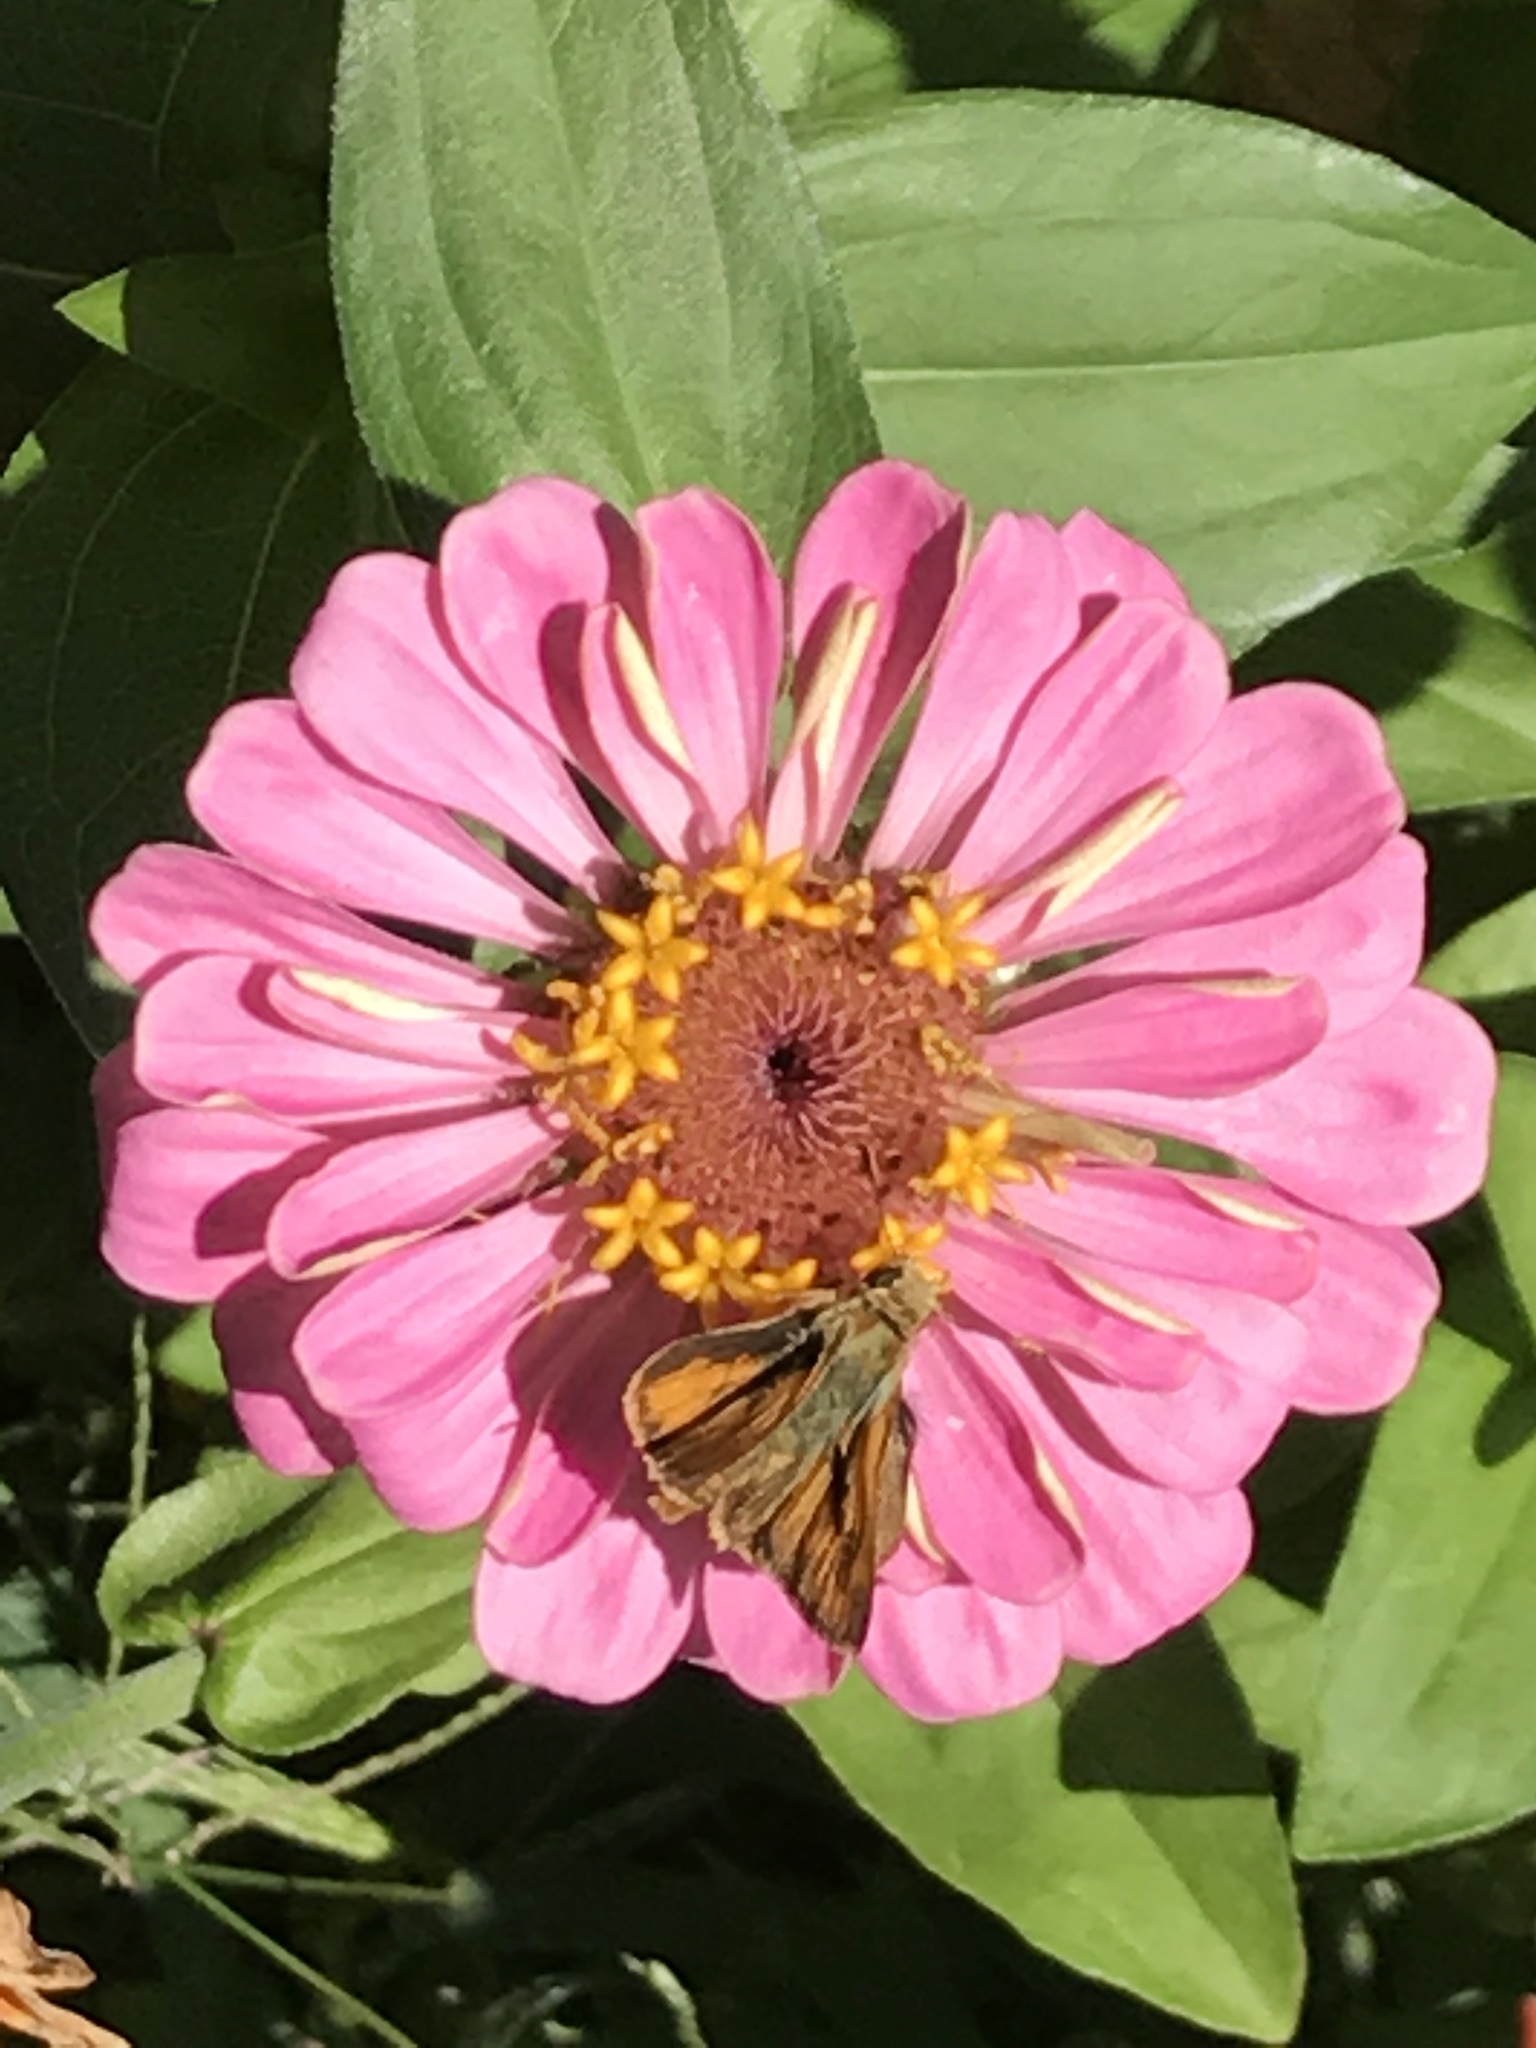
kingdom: Animalia
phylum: Arthropoda
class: Insecta
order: Lepidoptera
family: Hesperiidae
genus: Hylephila
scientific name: Hylephila phyleus
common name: Fiery skipper
